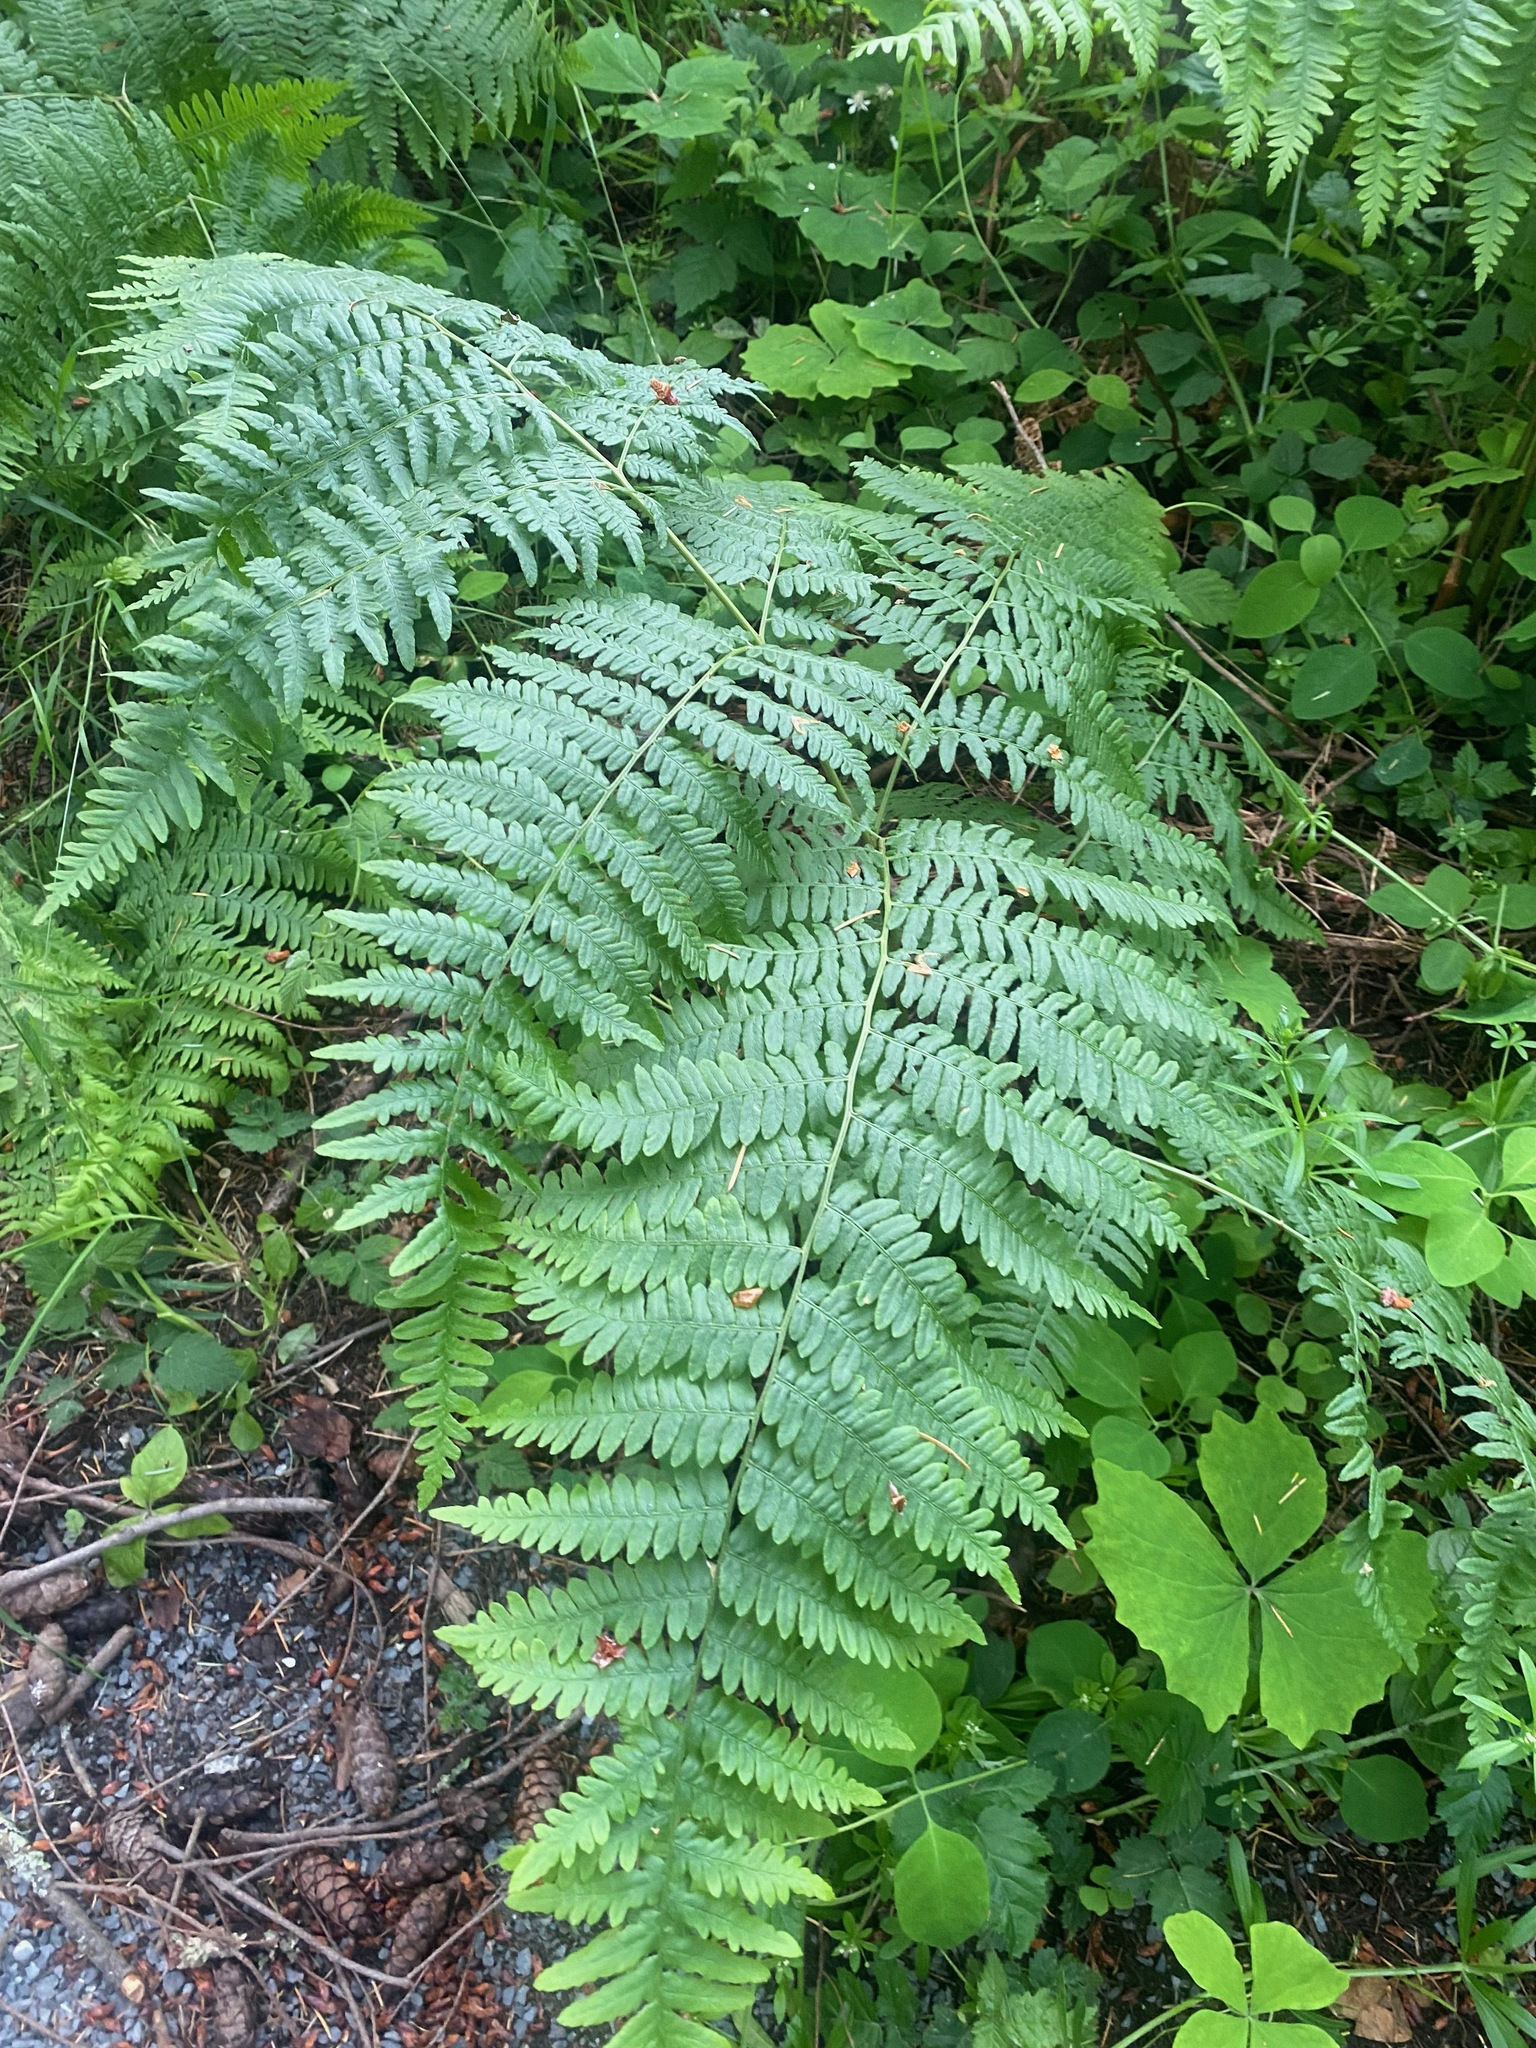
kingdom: Plantae
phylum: Tracheophyta
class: Polypodiopsida
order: Polypodiales
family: Dennstaedtiaceae
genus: Pteridium
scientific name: Pteridium aquilinum
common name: Bracken
